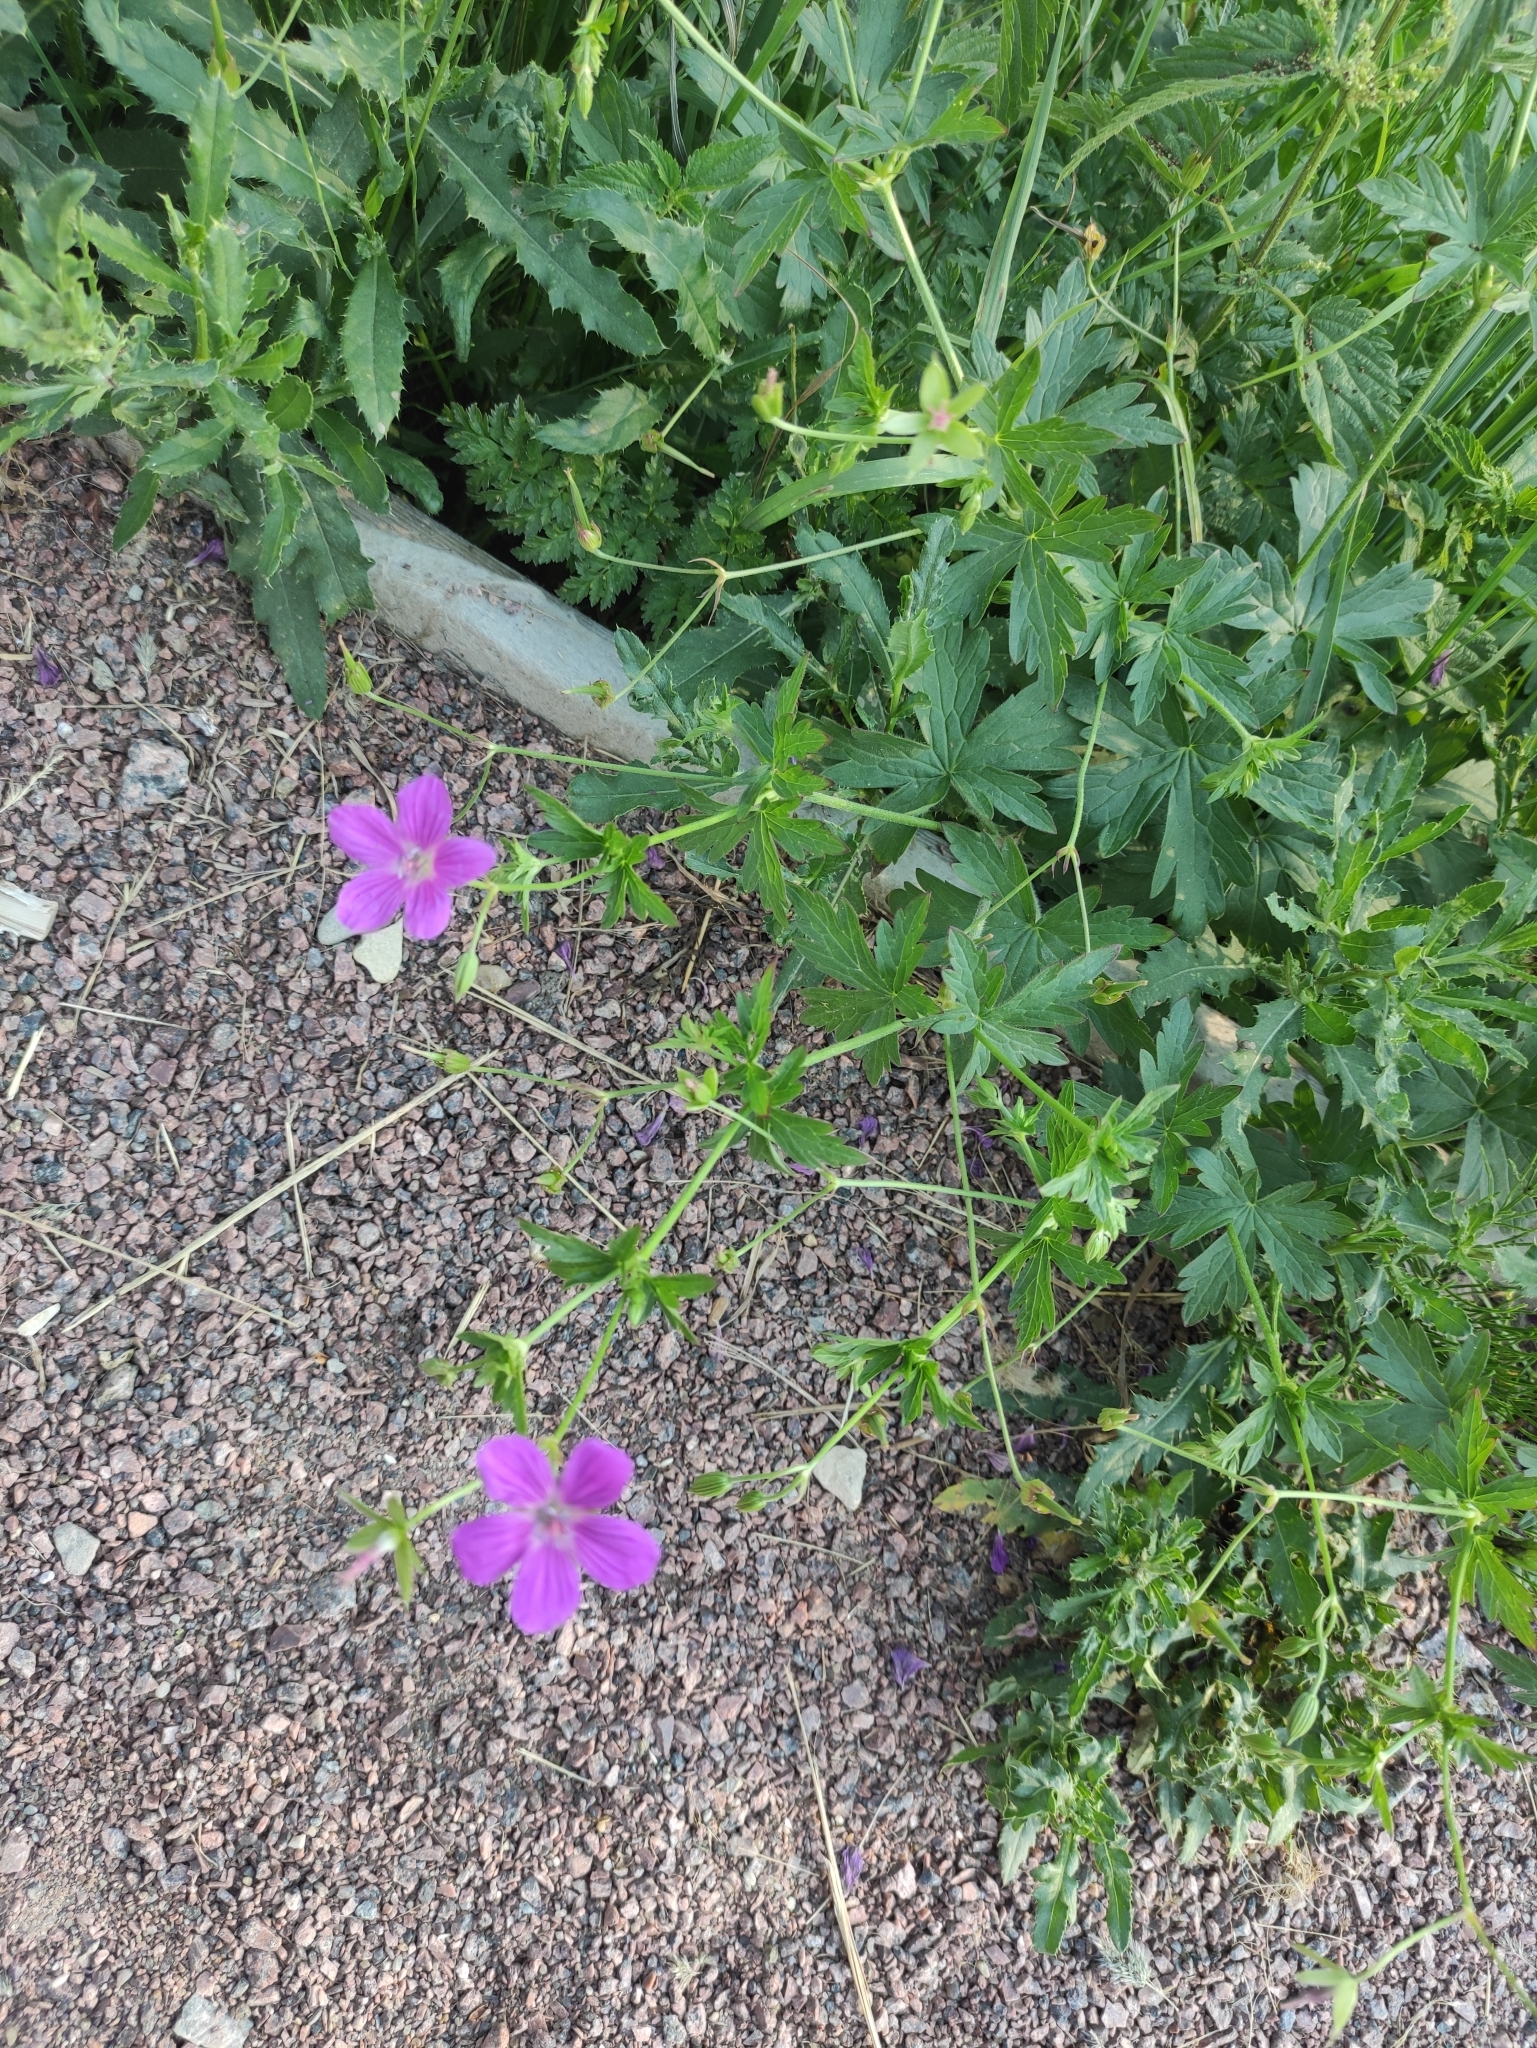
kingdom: Plantae
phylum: Tracheophyta
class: Magnoliopsida
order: Geraniales
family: Geraniaceae
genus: Geranium
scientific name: Geranium palustre
